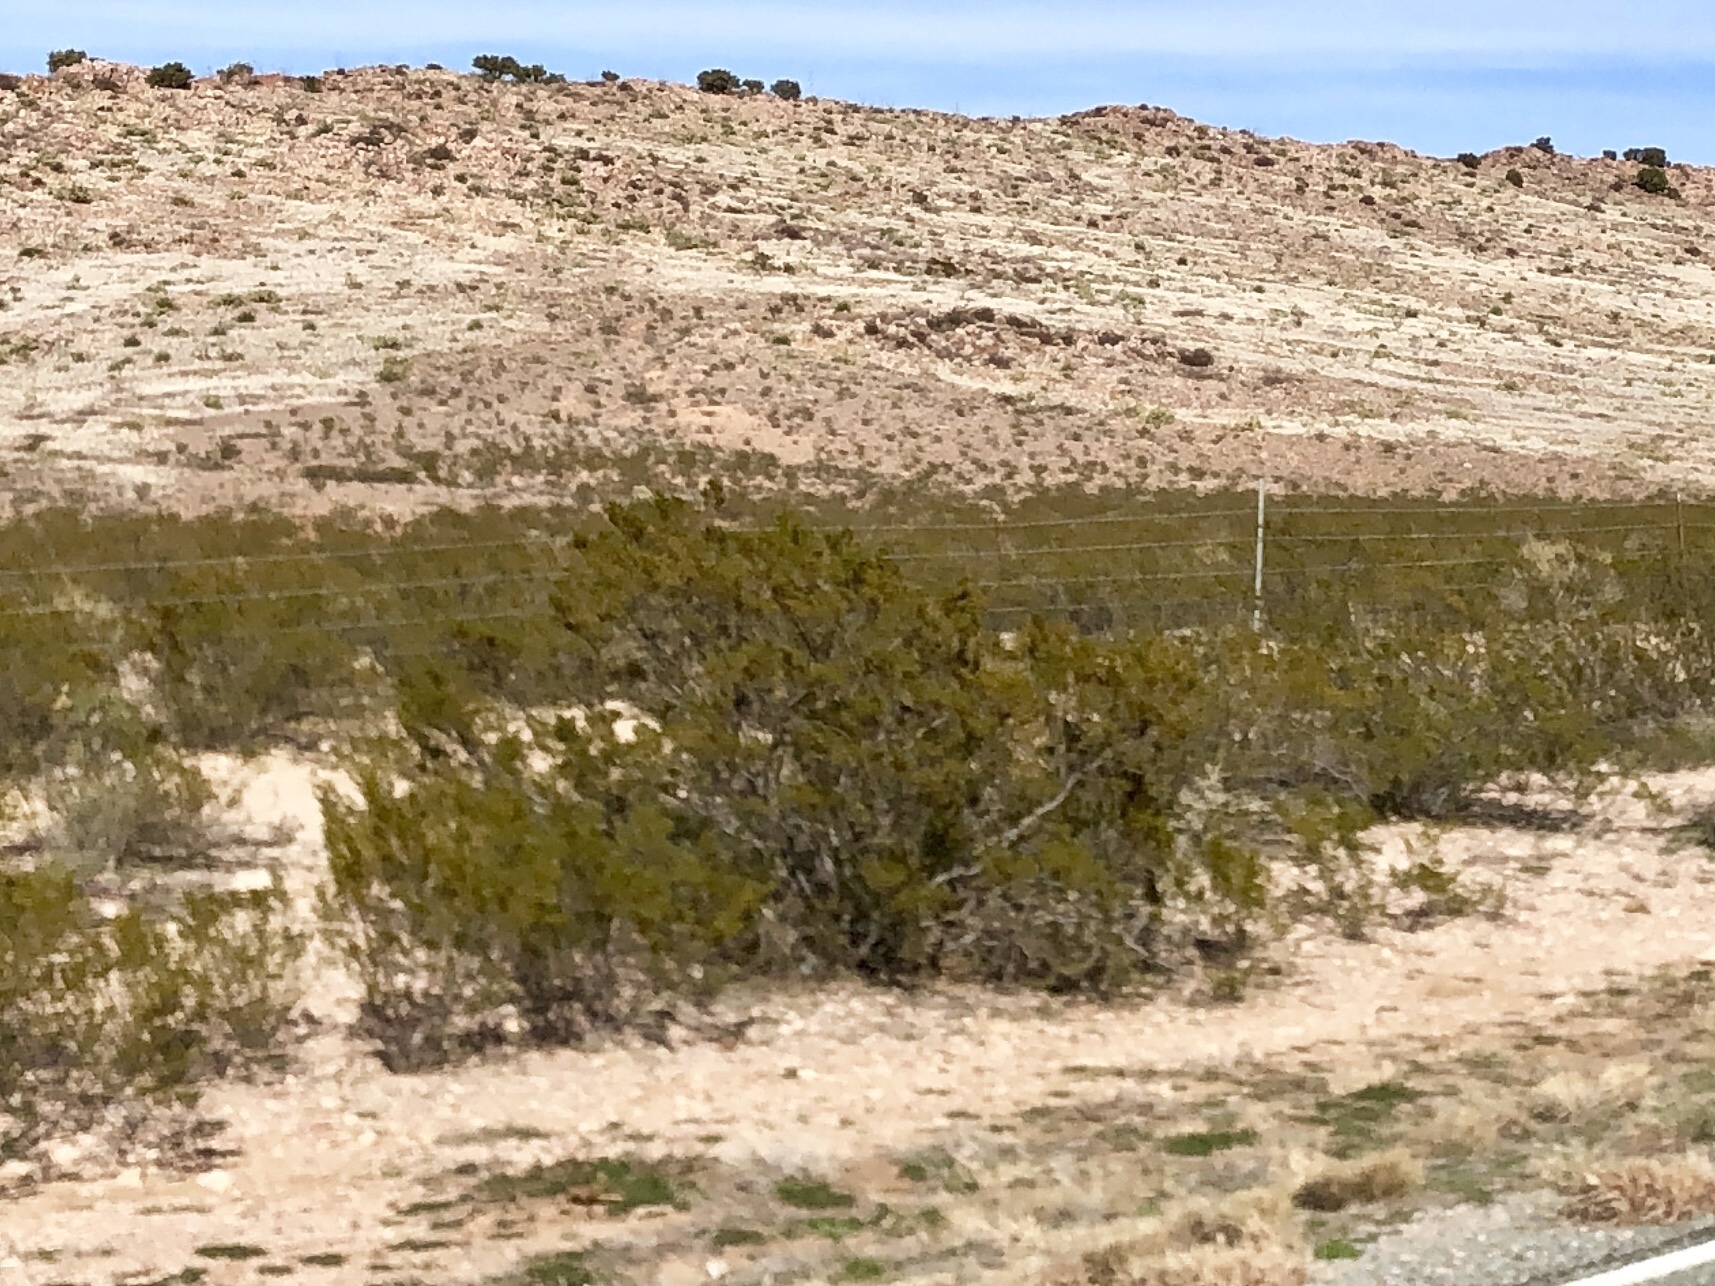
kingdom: Plantae
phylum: Tracheophyta
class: Magnoliopsida
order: Zygophyllales
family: Zygophyllaceae
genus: Larrea
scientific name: Larrea tridentata
